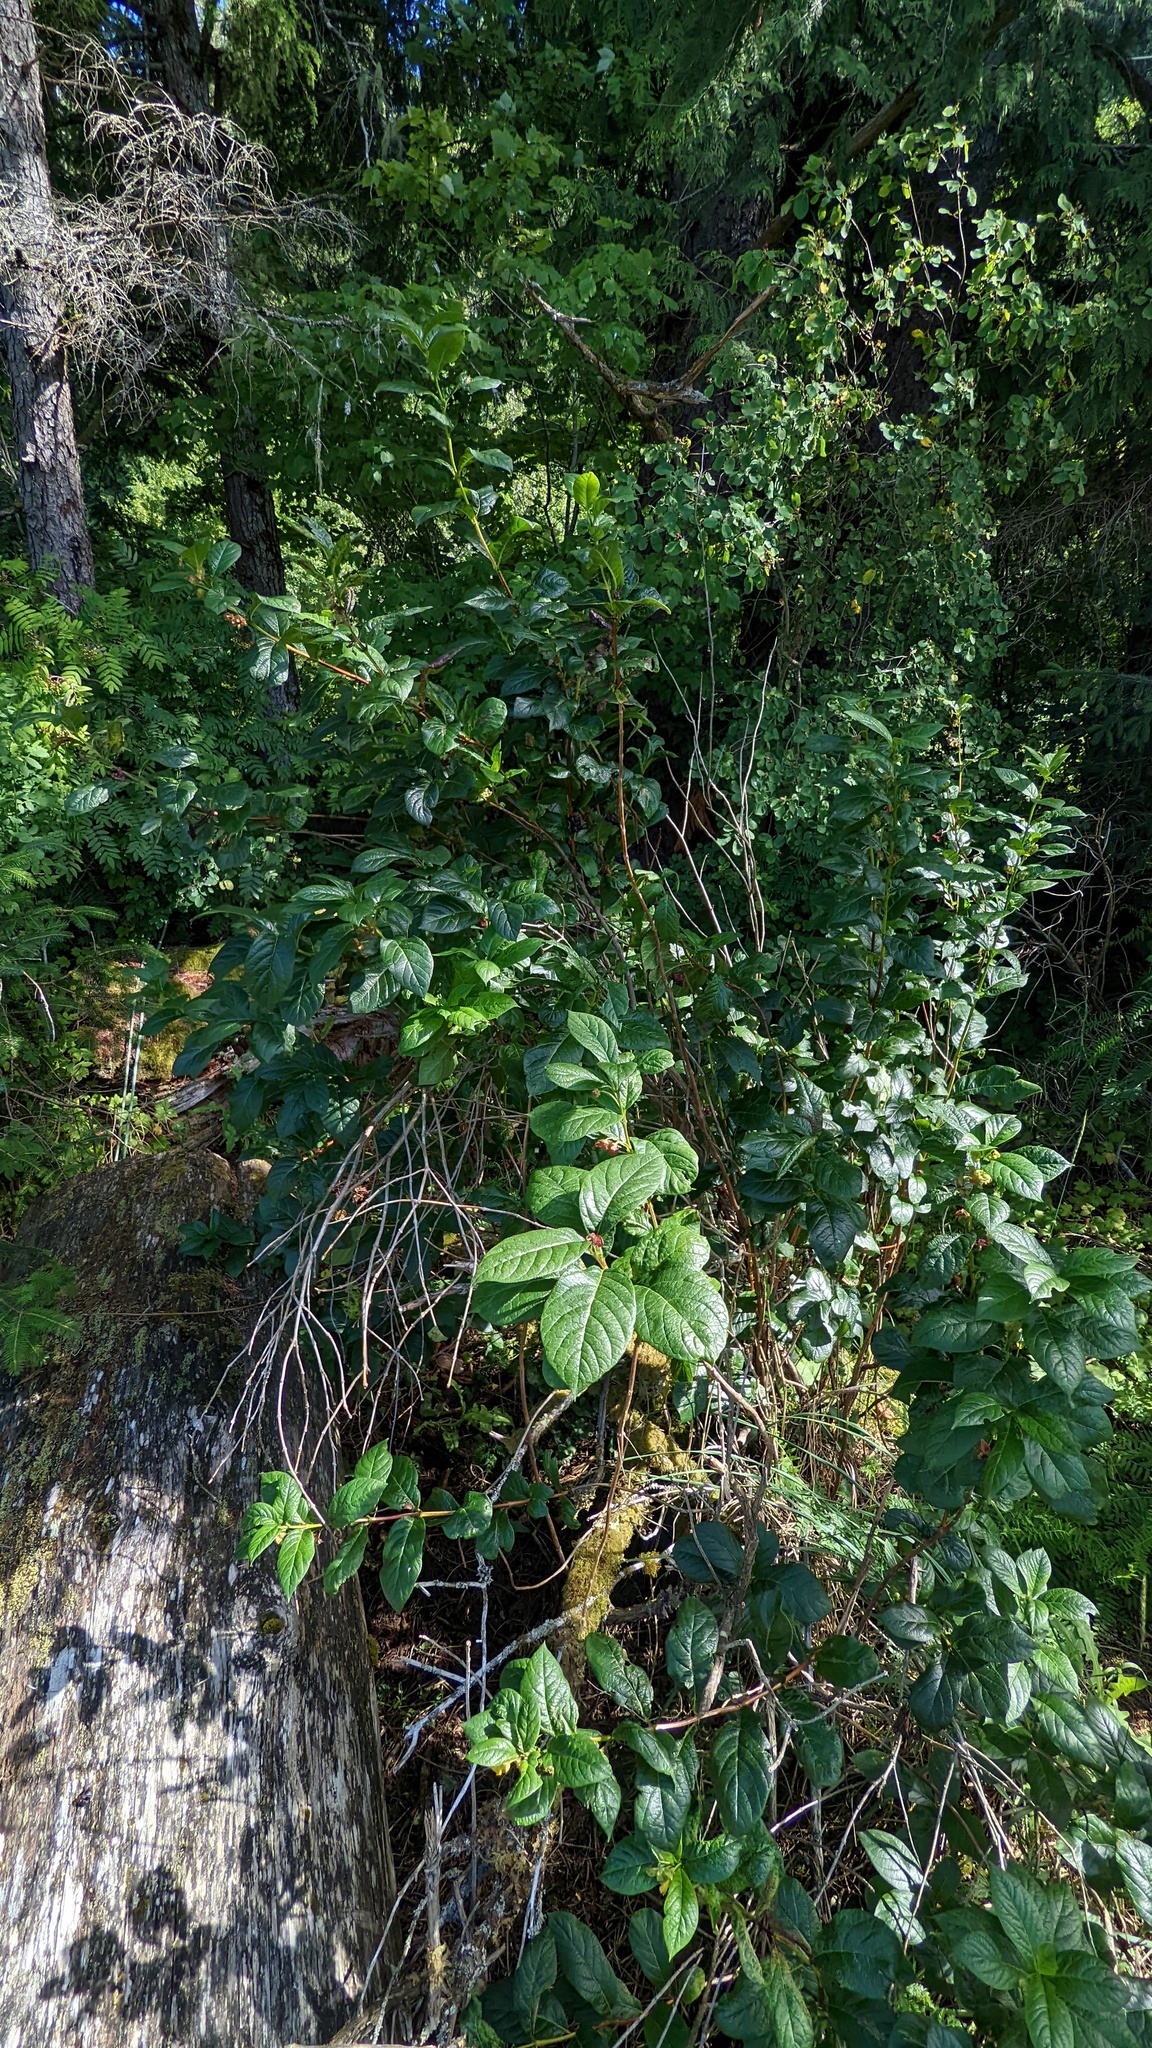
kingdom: Plantae
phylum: Tracheophyta
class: Magnoliopsida
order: Dipsacales
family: Caprifoliaceae
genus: Lonicera
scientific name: Lonicera involucrata
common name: Californian honeysuckle
